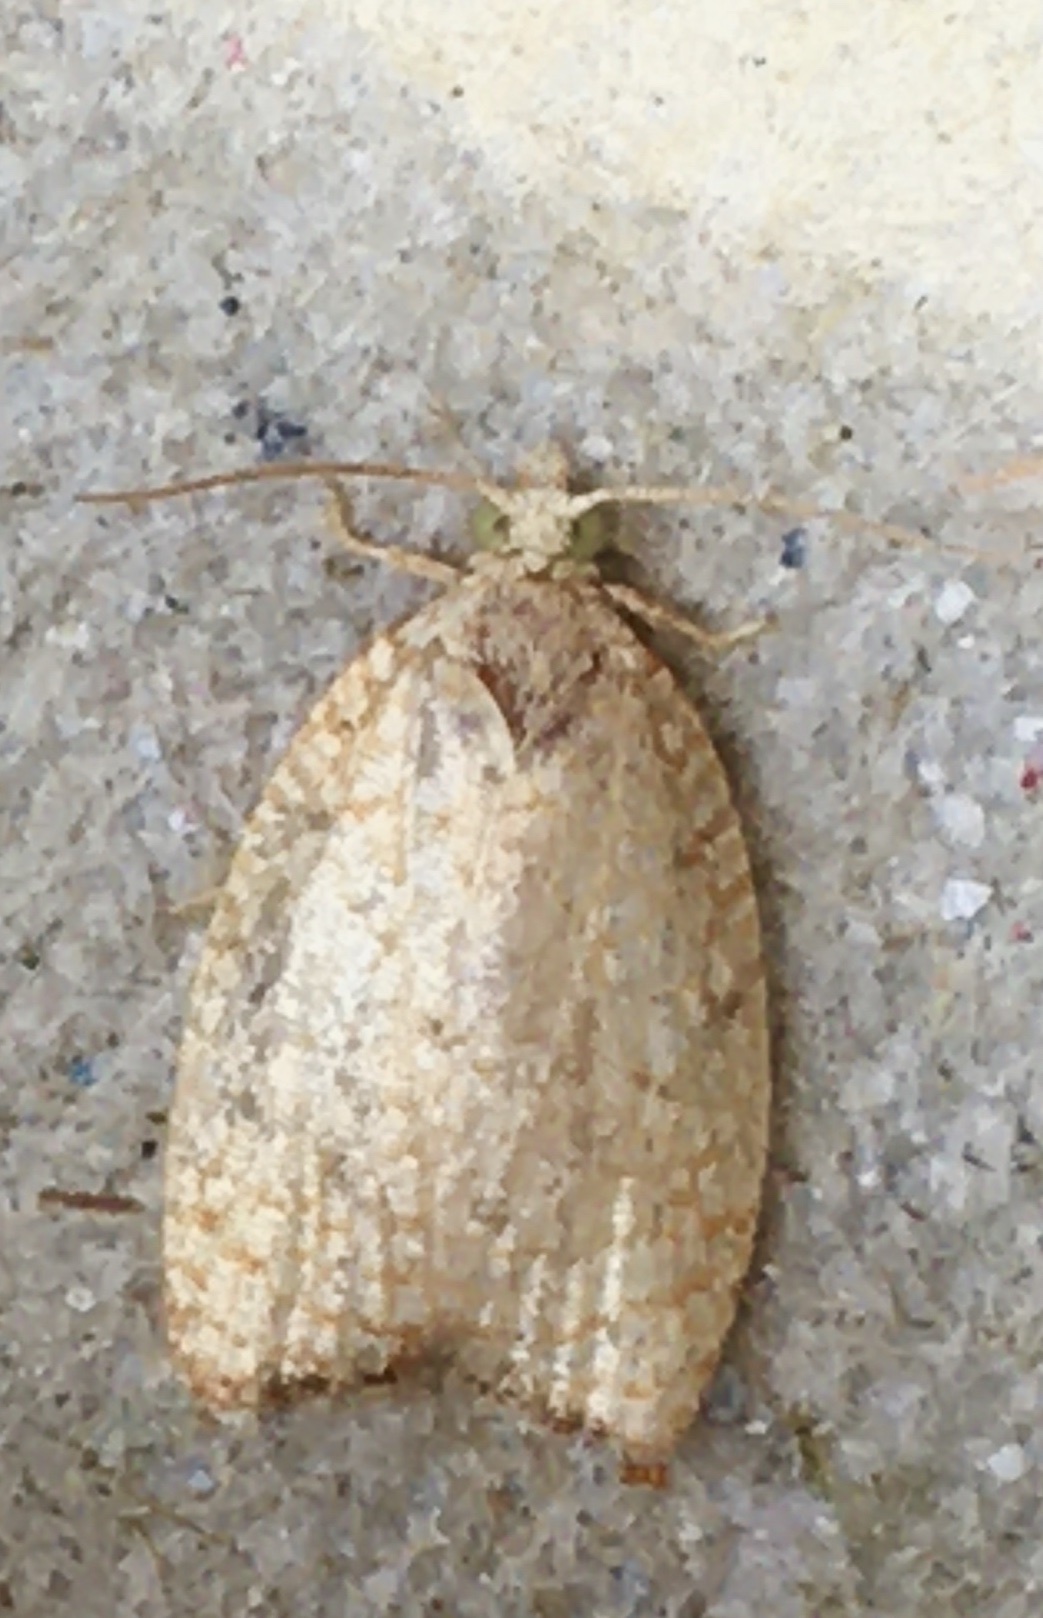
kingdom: Animalia
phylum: Arthropoda
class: Insecta
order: Lepidoptera
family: Tortricidae
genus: Acleris
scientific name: Acleris forsskaleana
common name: Maple button
